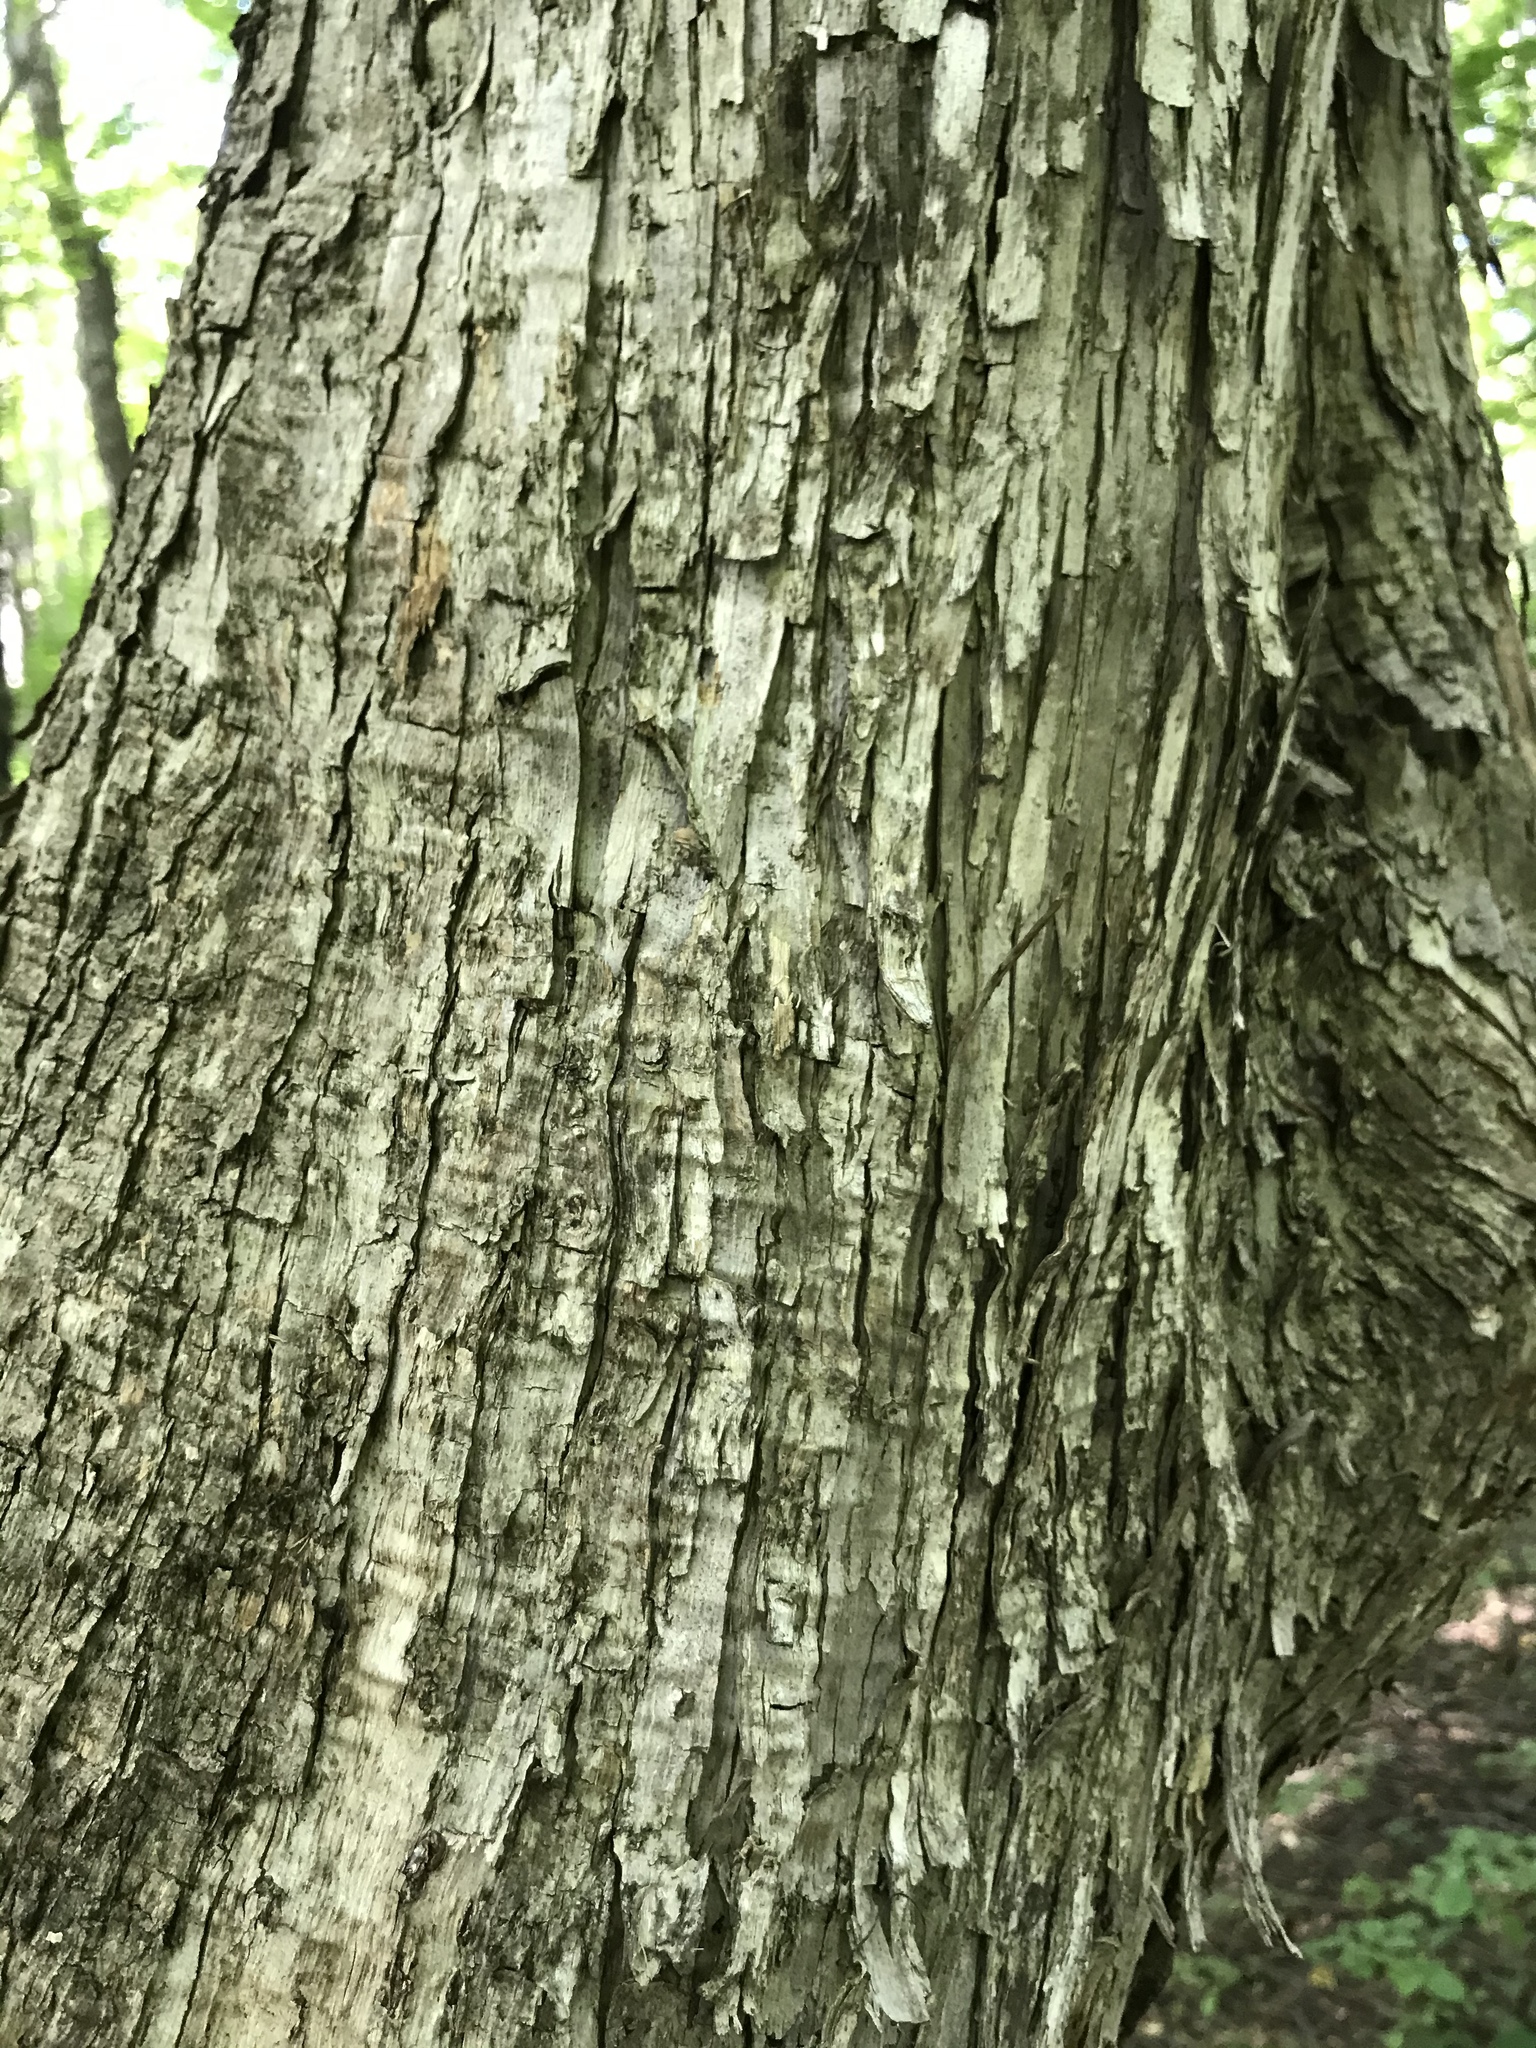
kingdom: Plantae
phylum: Tracheophyta
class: Magnoliopsida
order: Fagales
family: Betulaceae
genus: Ostrya
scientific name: Ostrya virginiana
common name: Ironwood
